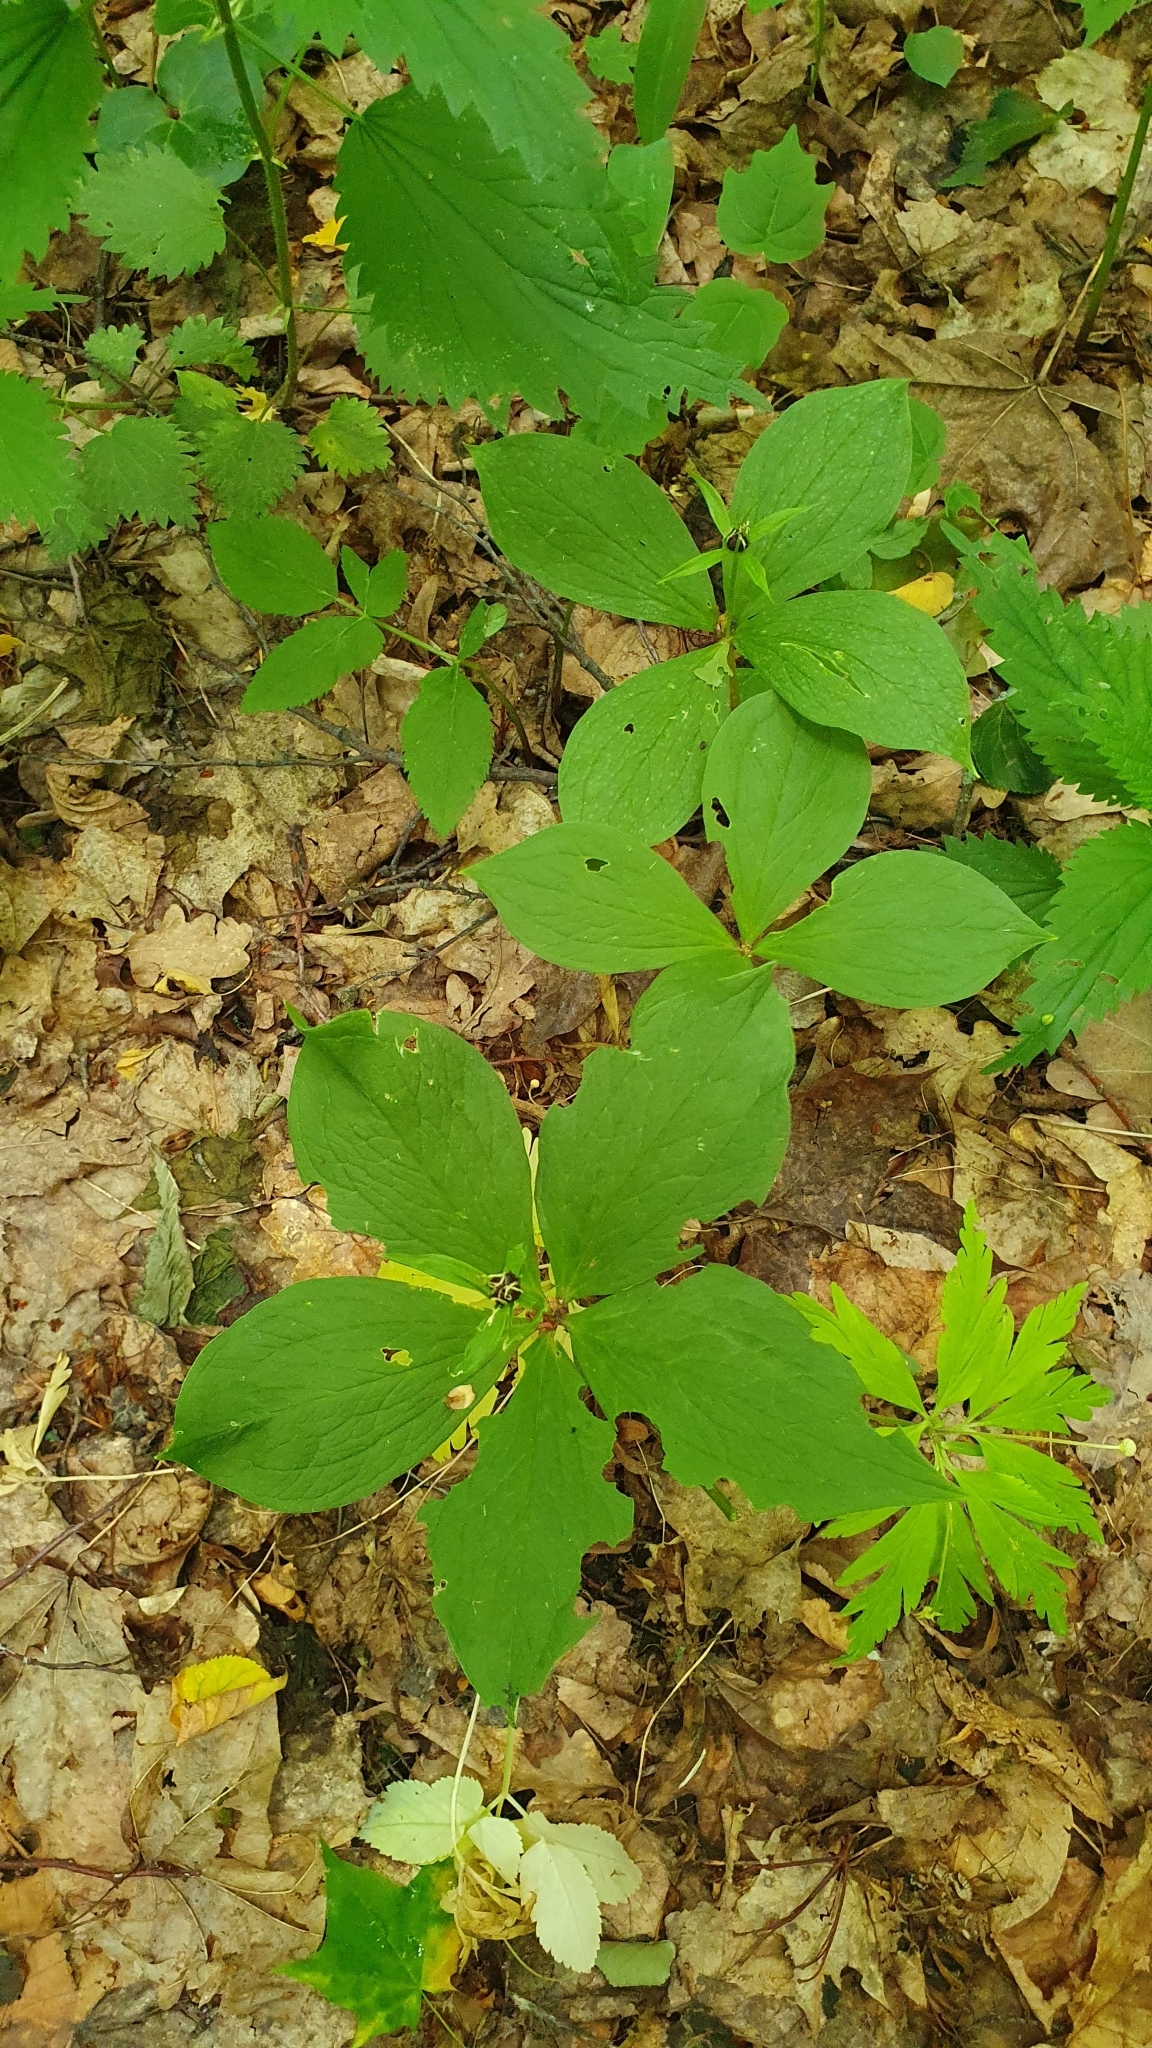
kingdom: Plantae
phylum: Tracheophyta
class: Liliopsida
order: Liliales
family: Melanthiaceae
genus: Paris
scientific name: Paris quadrifolia
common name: Herb-paris
